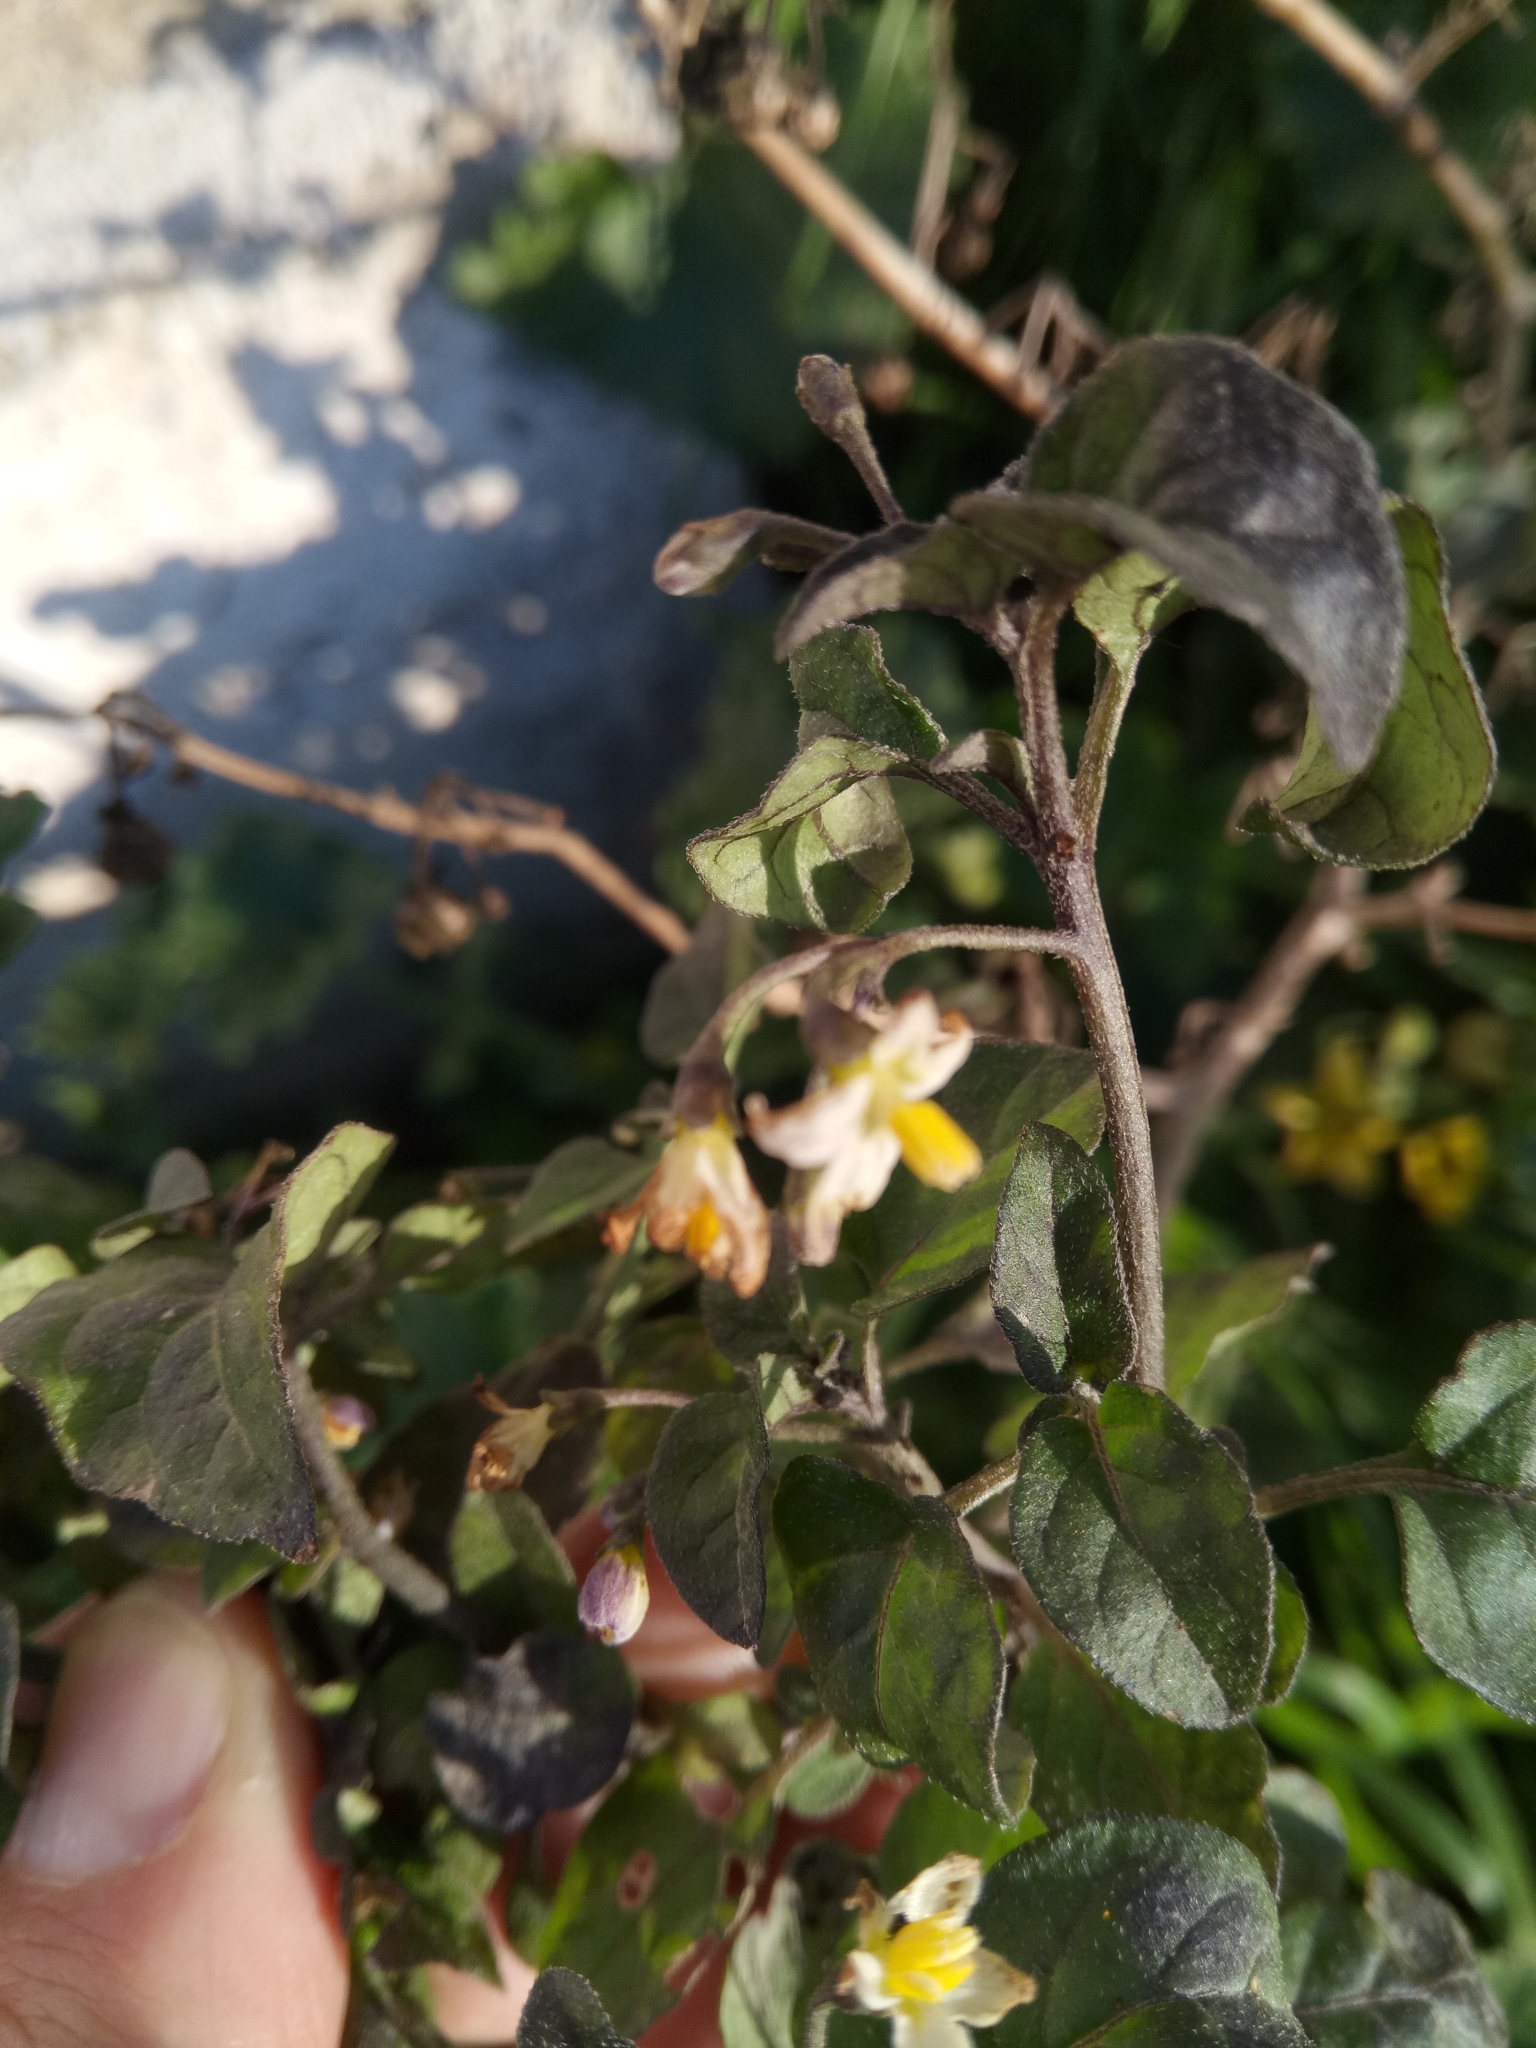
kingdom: Plantae
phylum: Tracheophyta
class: Magnoliopsida
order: Solanales
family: Solanaceae
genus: Solanum
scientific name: Solanum nigrum
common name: Black nightshade
